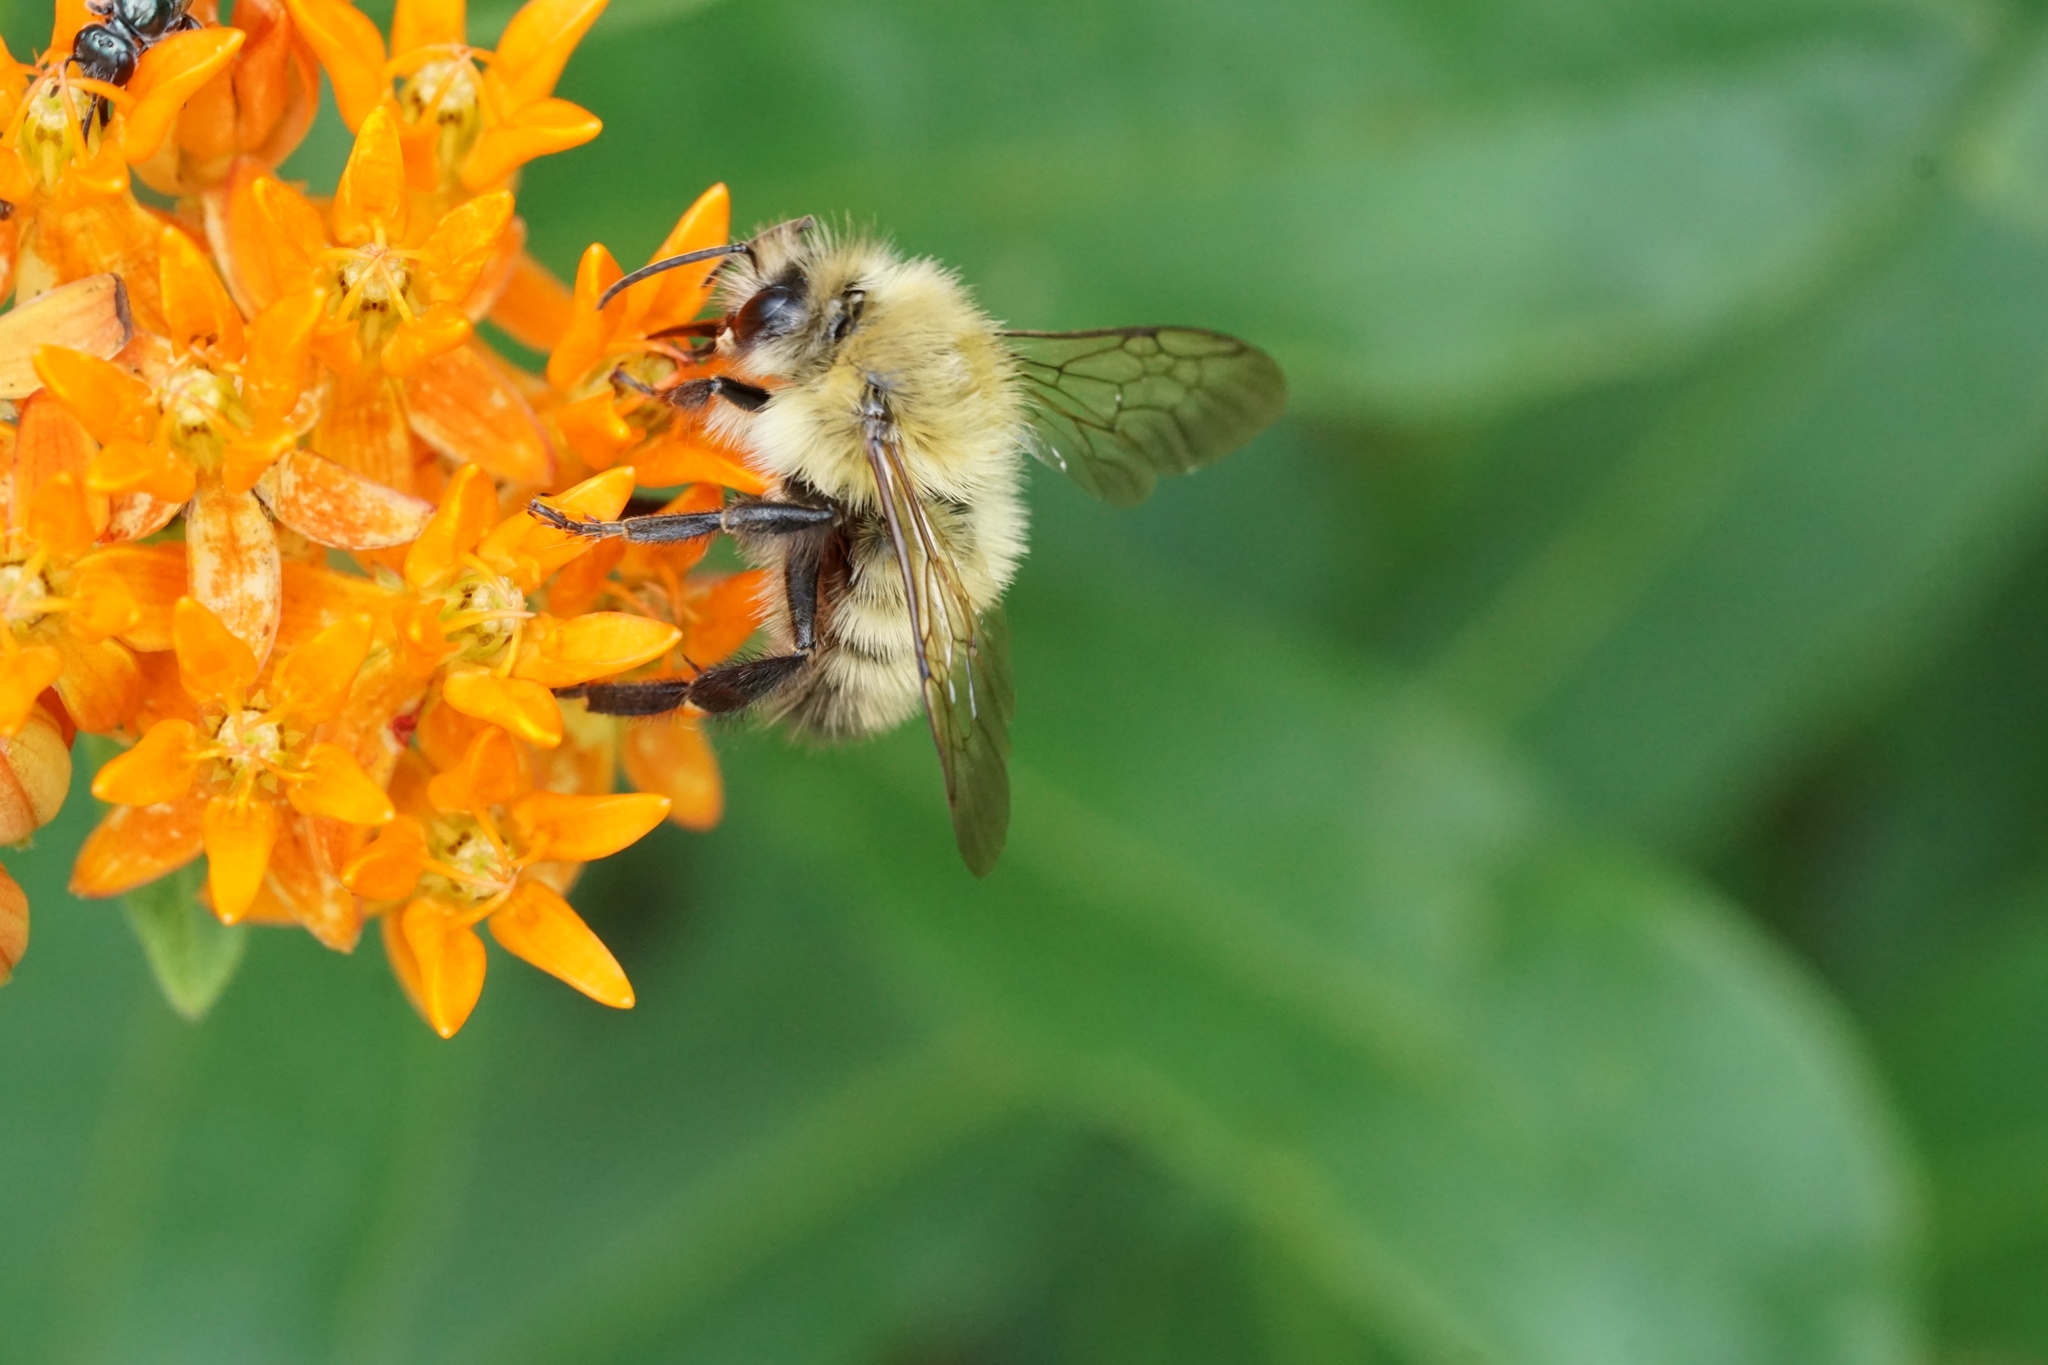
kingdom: Animalia
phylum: Arthropoda
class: Insecta
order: Hymenoptera
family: Apidae
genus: Bombus
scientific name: Bombus perplexus
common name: Confusing bumble bee
